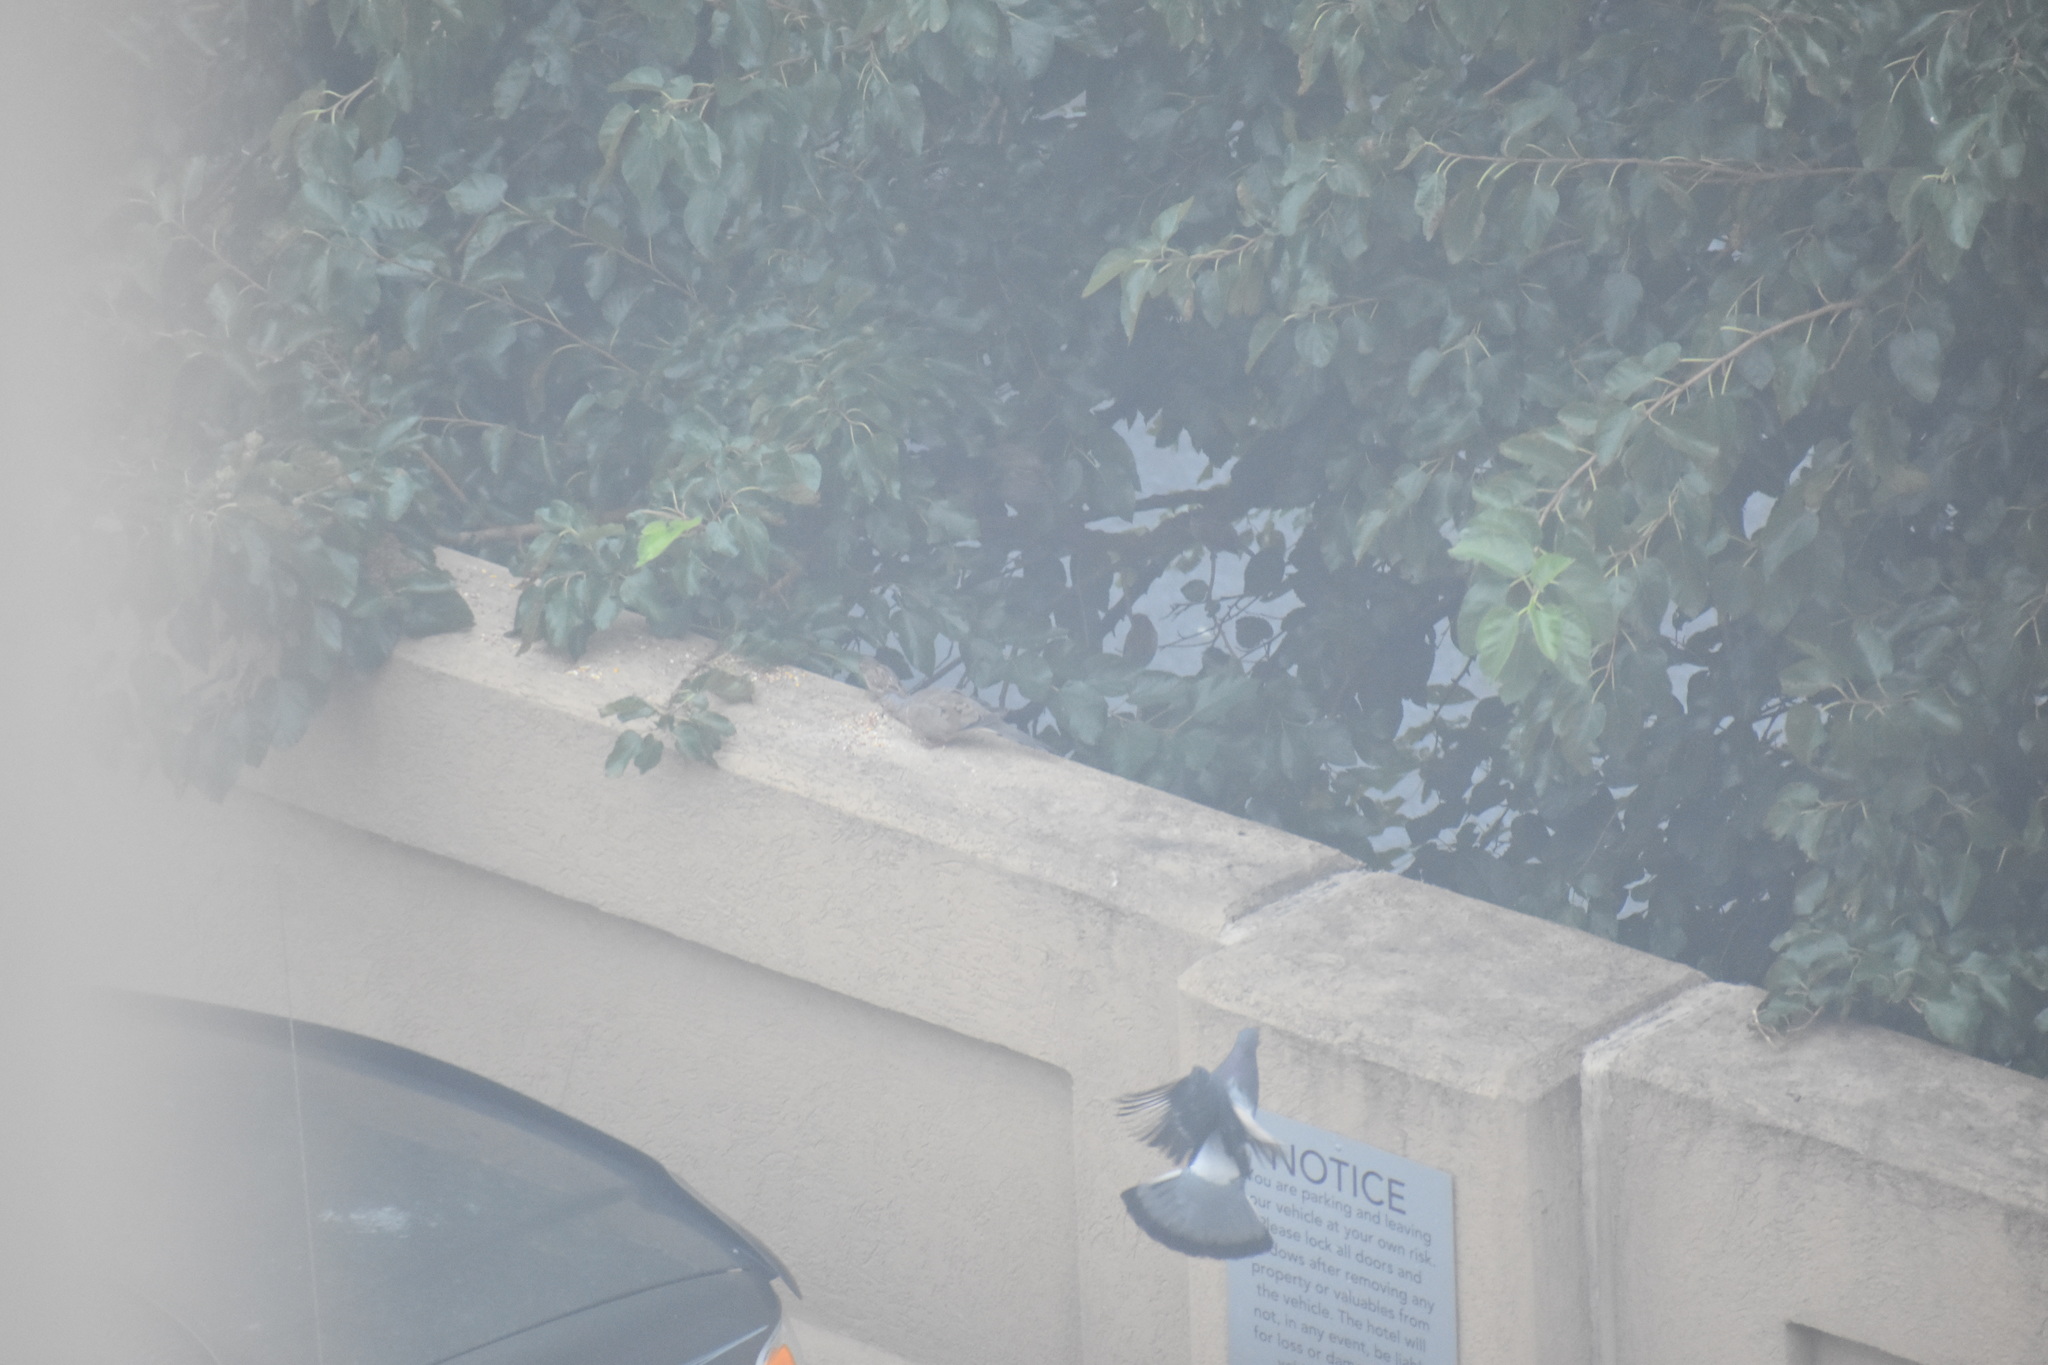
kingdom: Animalia
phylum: Chordata
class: Aves
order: Columbiformes
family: Columbidae
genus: Zenaida
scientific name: Zenaida macroura
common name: Mourning dove
